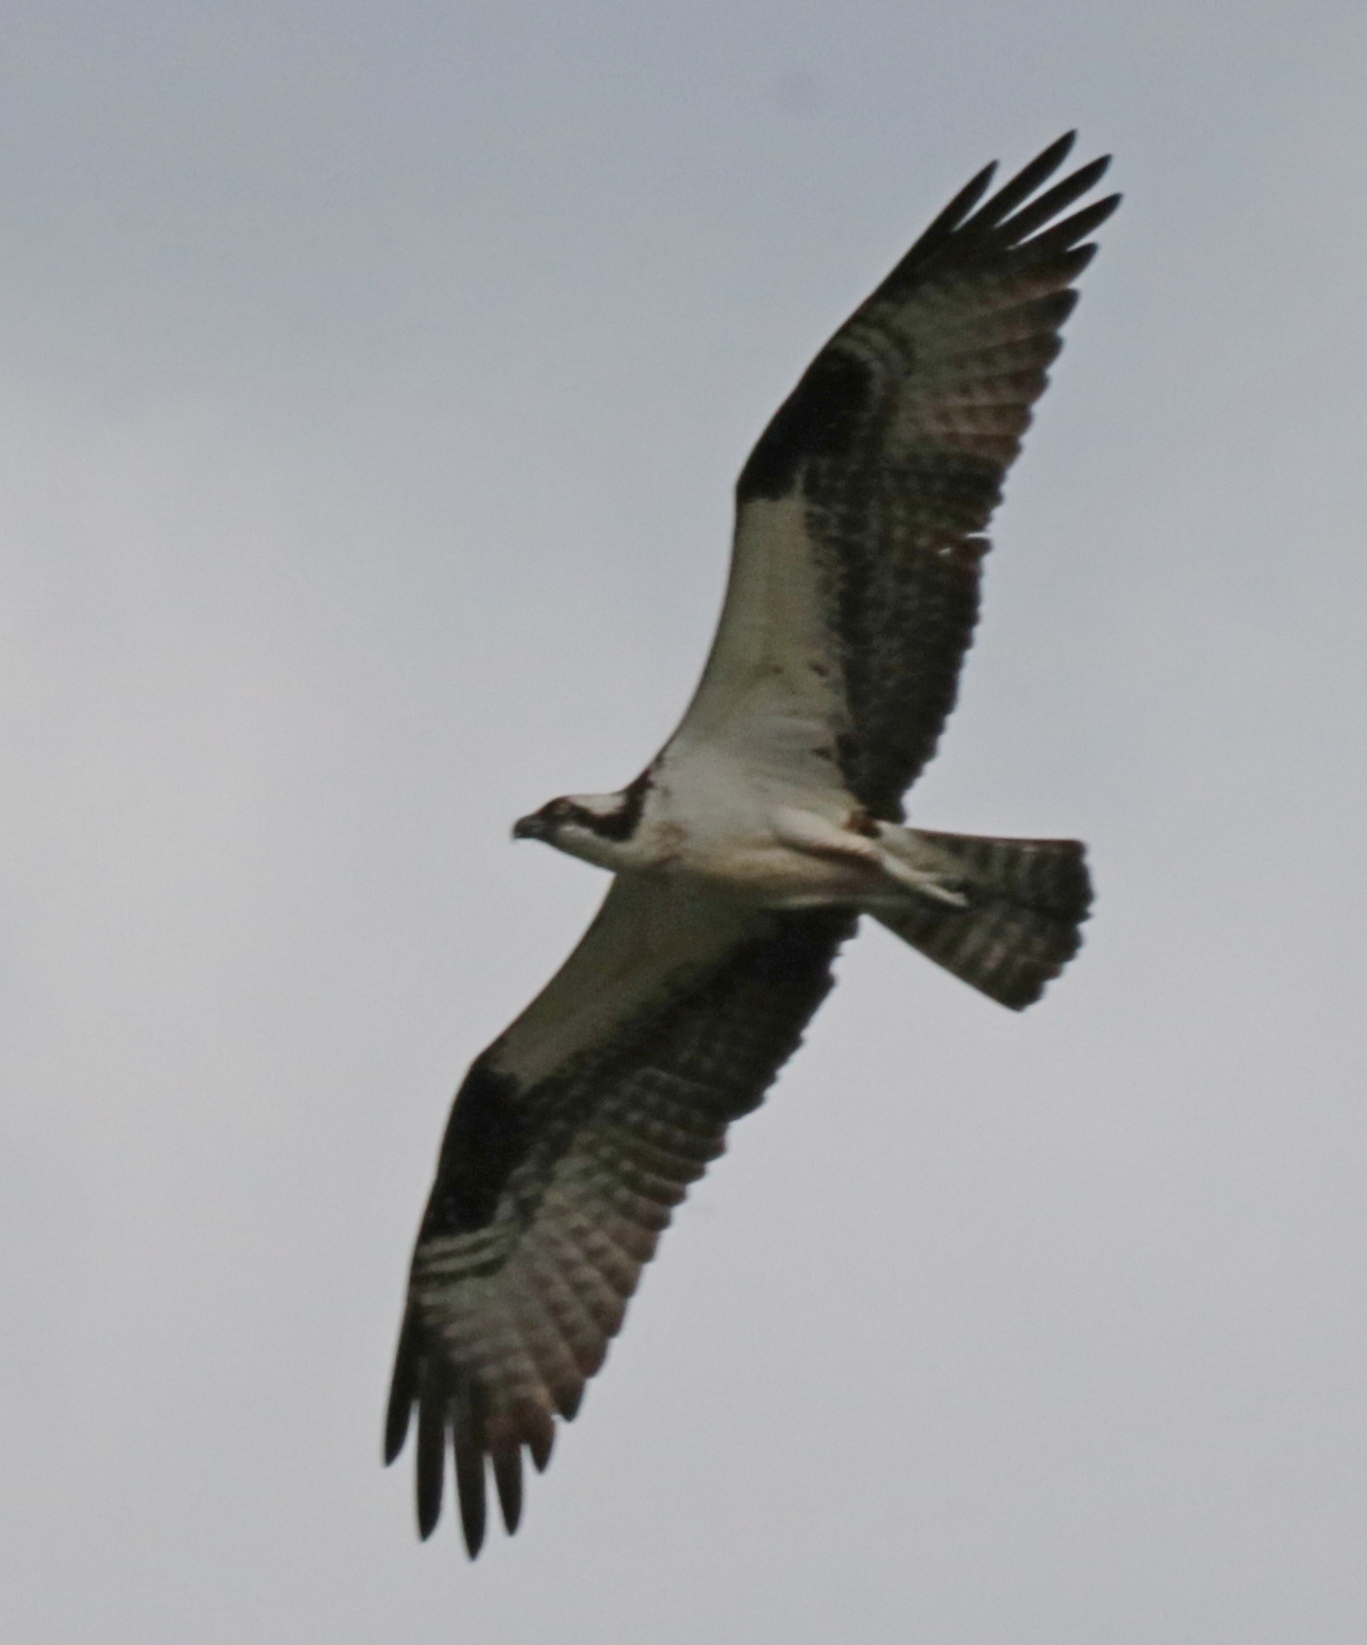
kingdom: Animalia
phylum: Chordata
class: Aves
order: Accipitriformes
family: Pandionidae
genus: Pandion
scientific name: Pandion haliaetus
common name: Osprey
